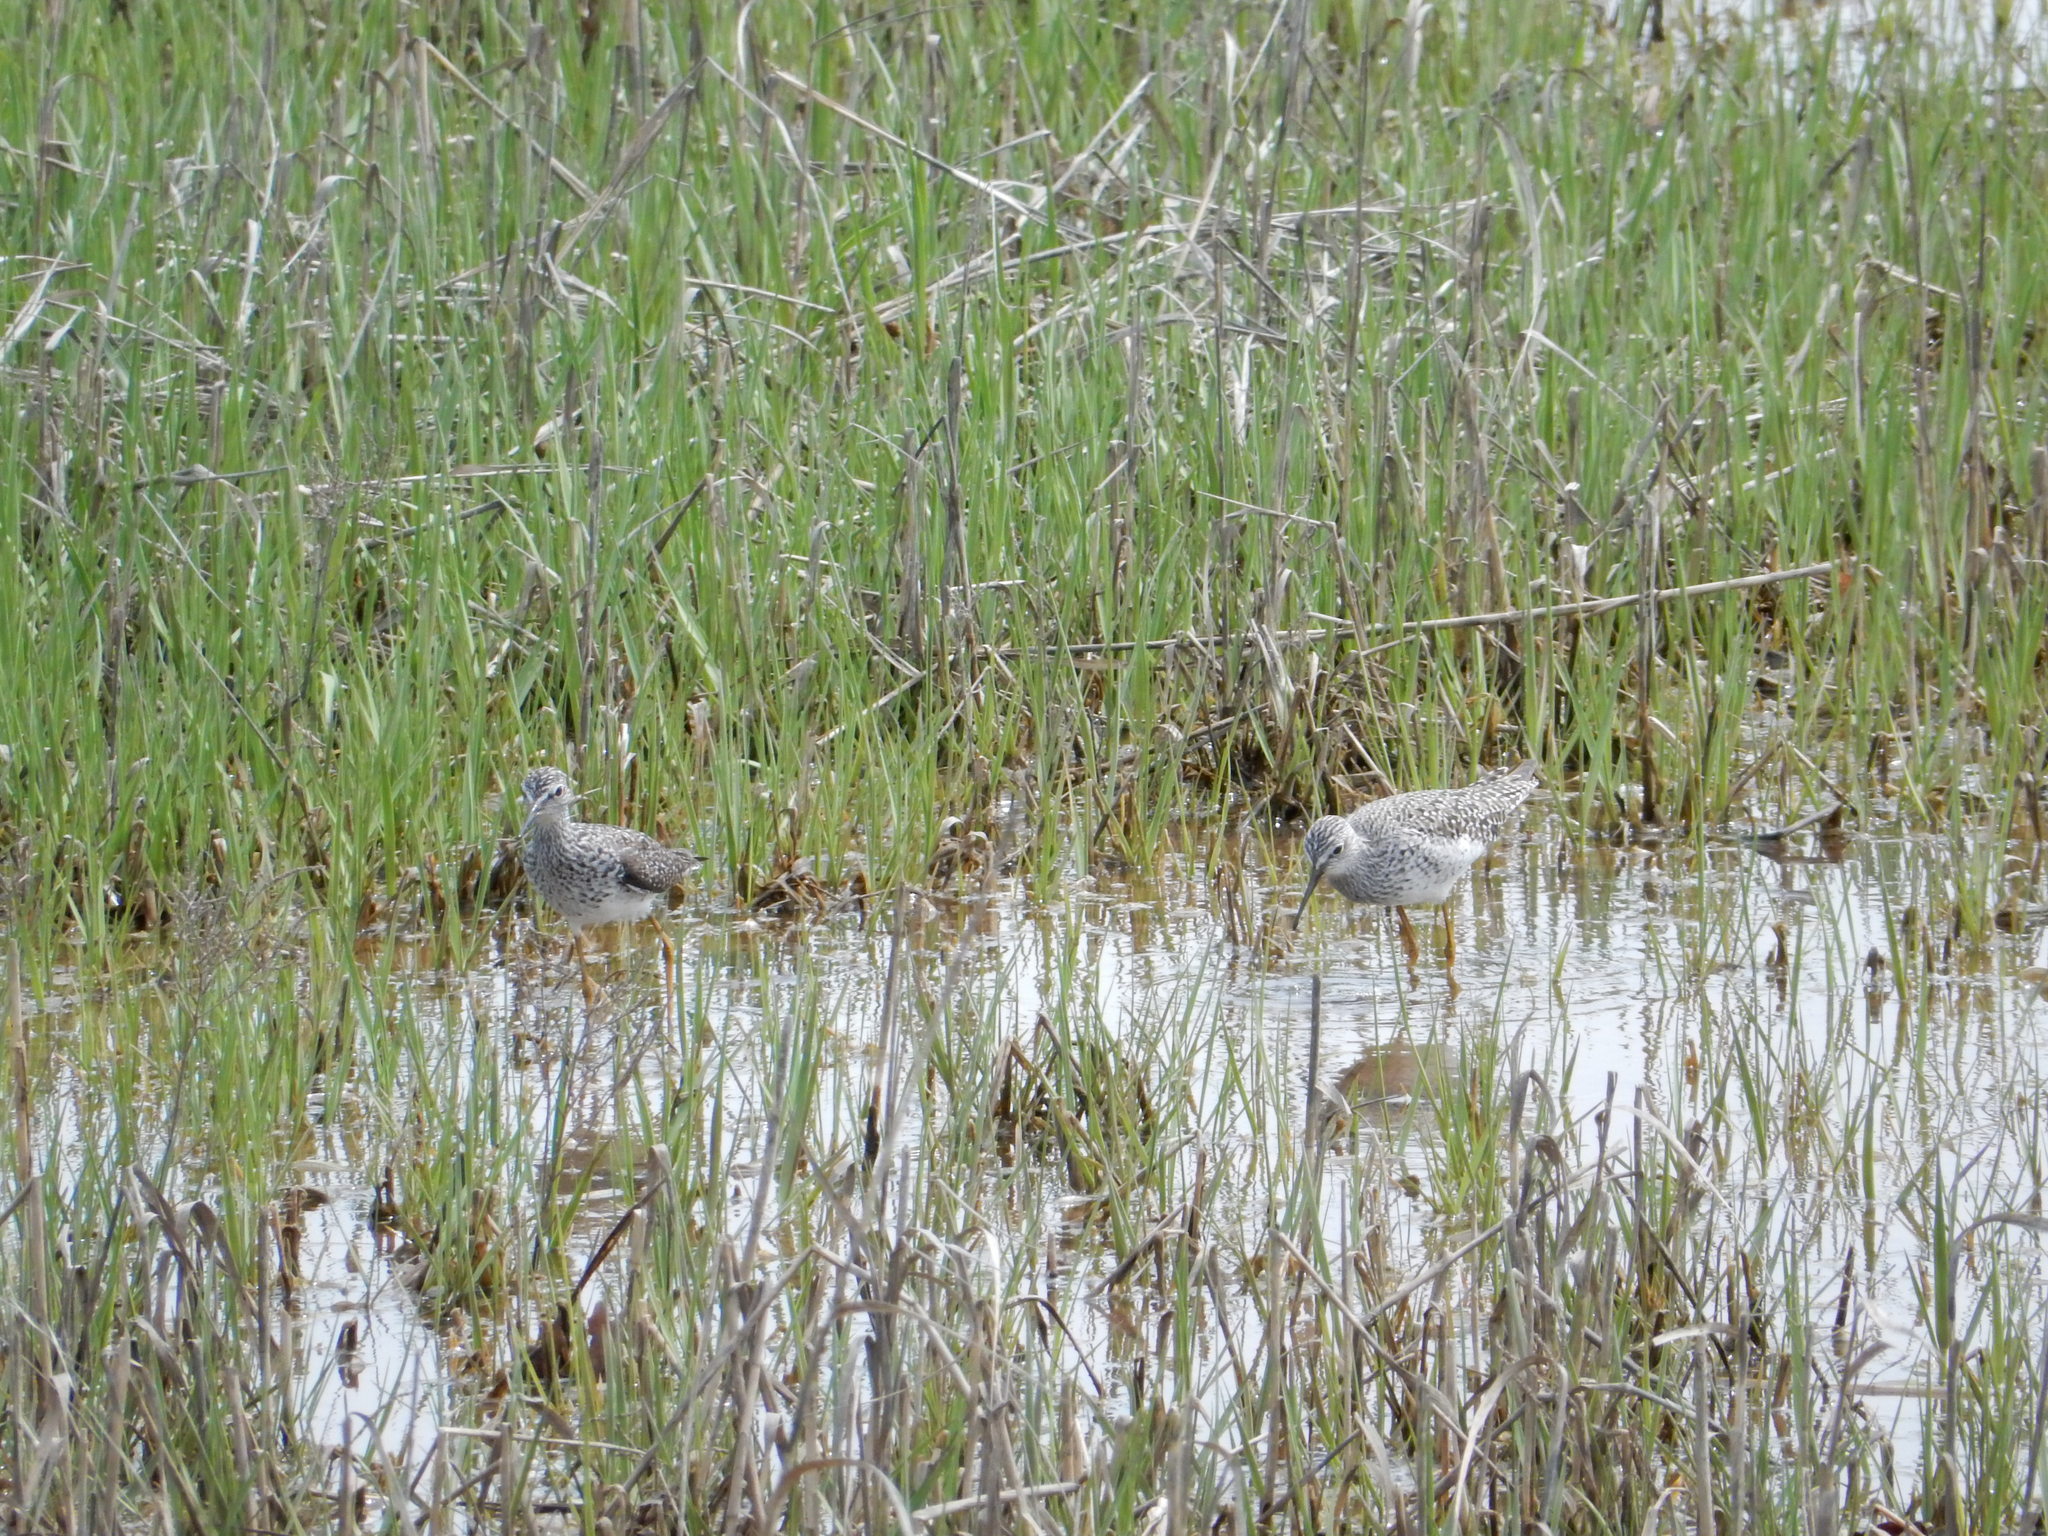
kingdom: Animalia
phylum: Chordata
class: Aves
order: Charadriiformes
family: Scolopacidae
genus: Tringa
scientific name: Tringa flavipes
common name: Lesser yellowlegs
